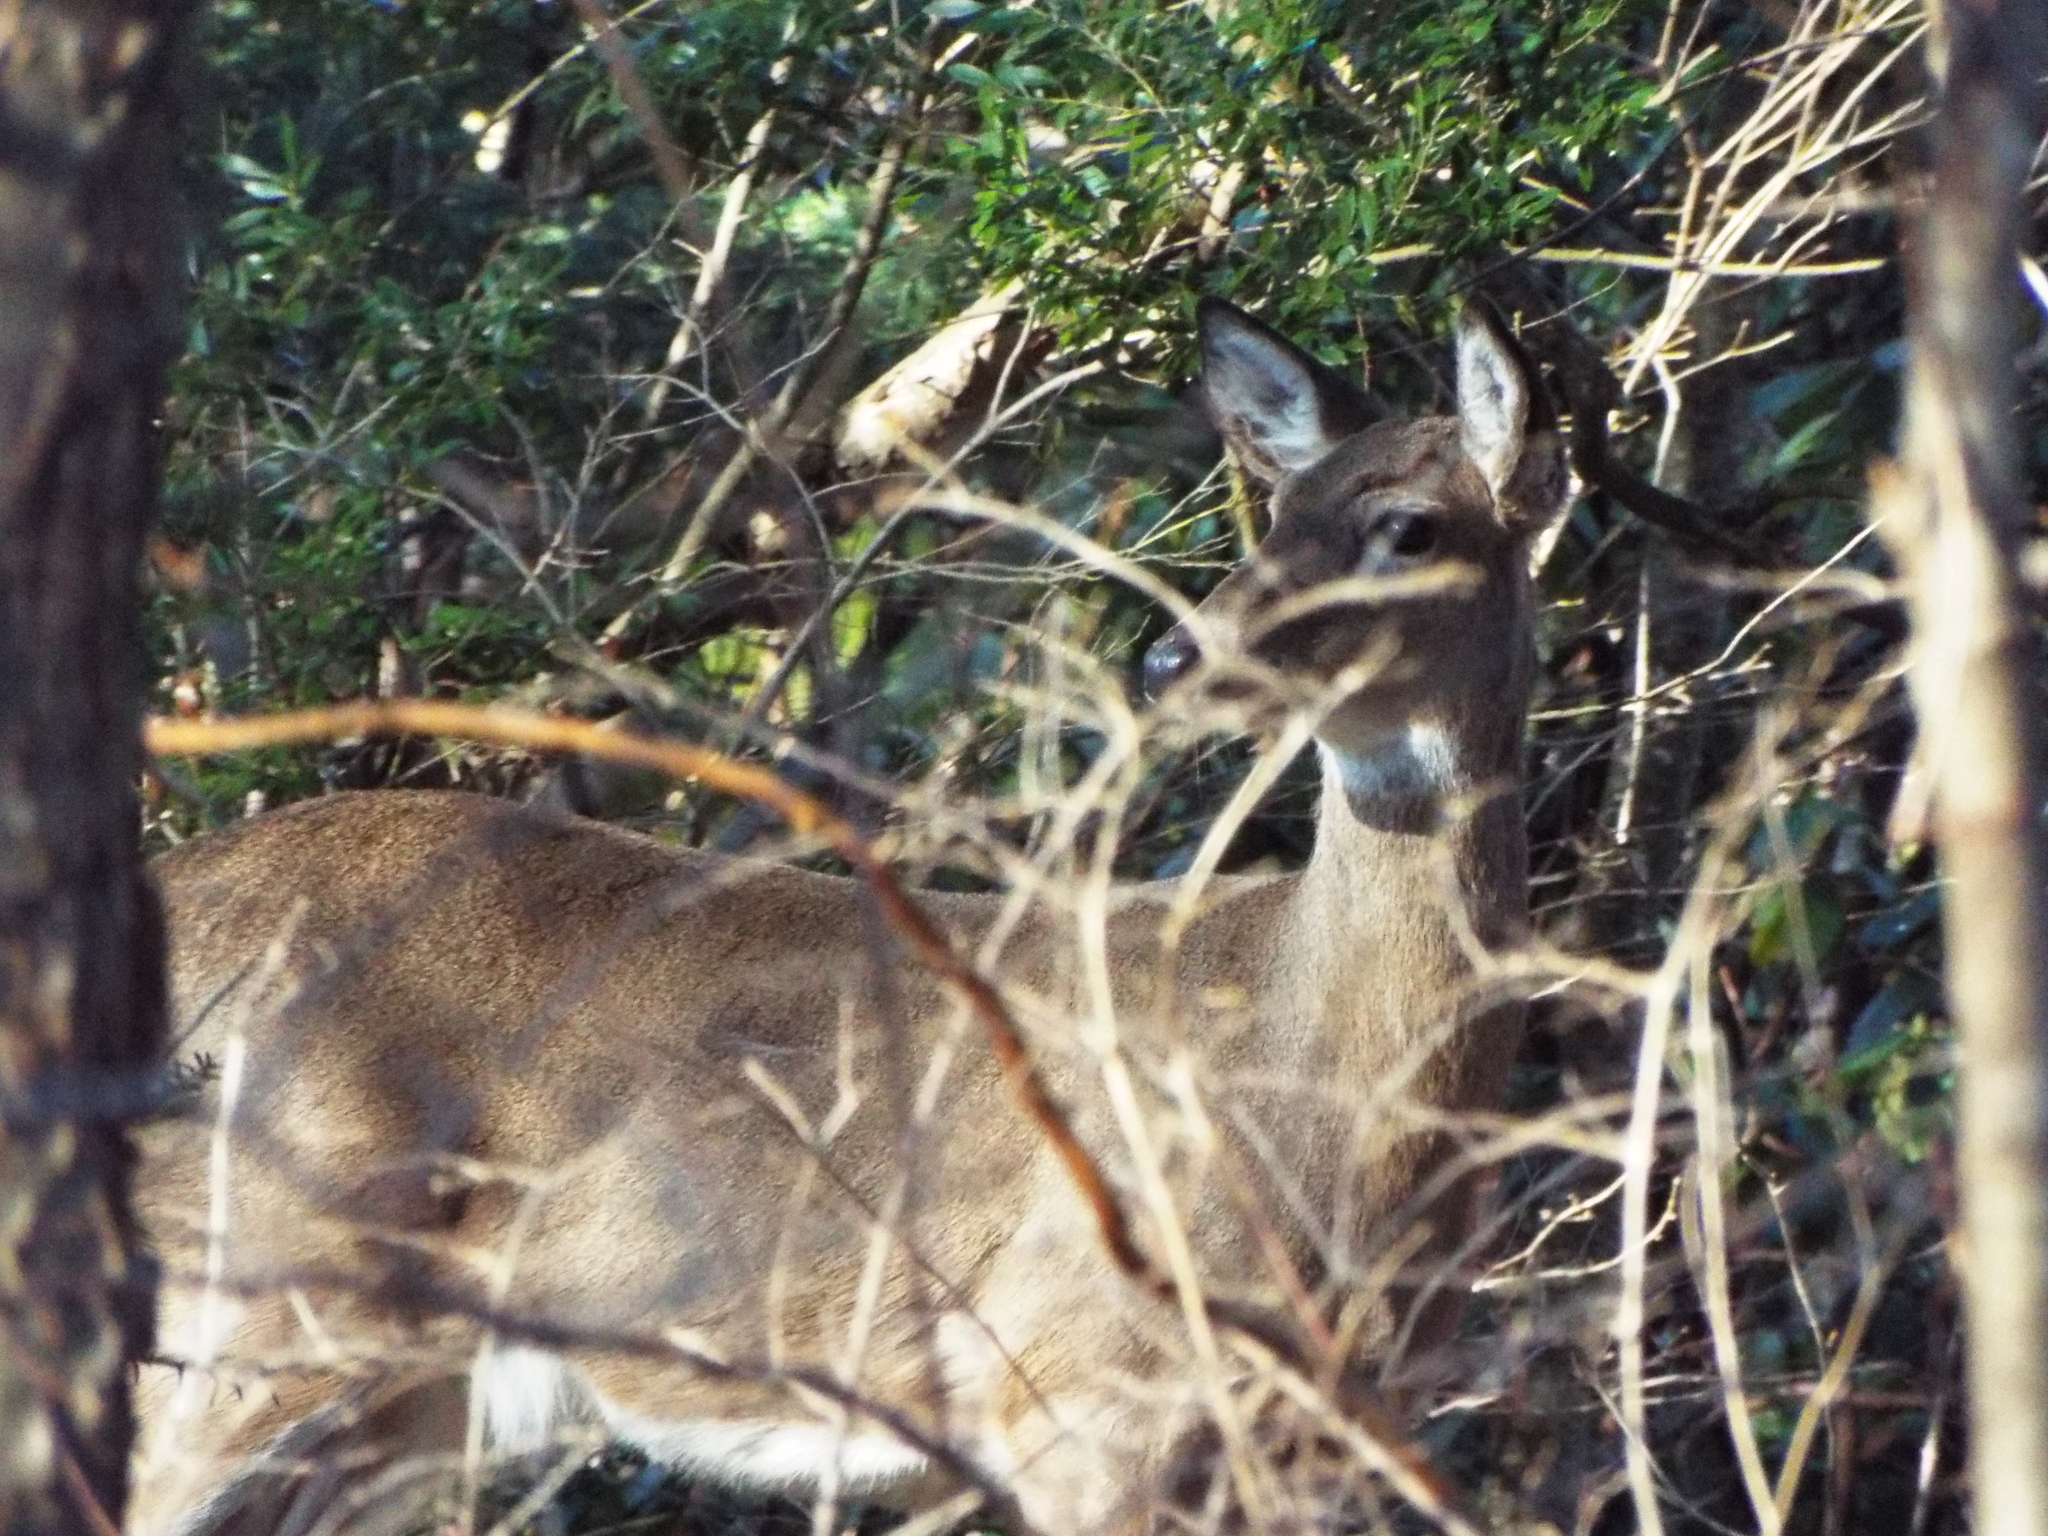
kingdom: Animalia
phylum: Chordata
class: Mammalia
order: Artiodactyla
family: Cervidae
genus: Odocoileus
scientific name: Odocoileus virginianus
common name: White-tailed deer
